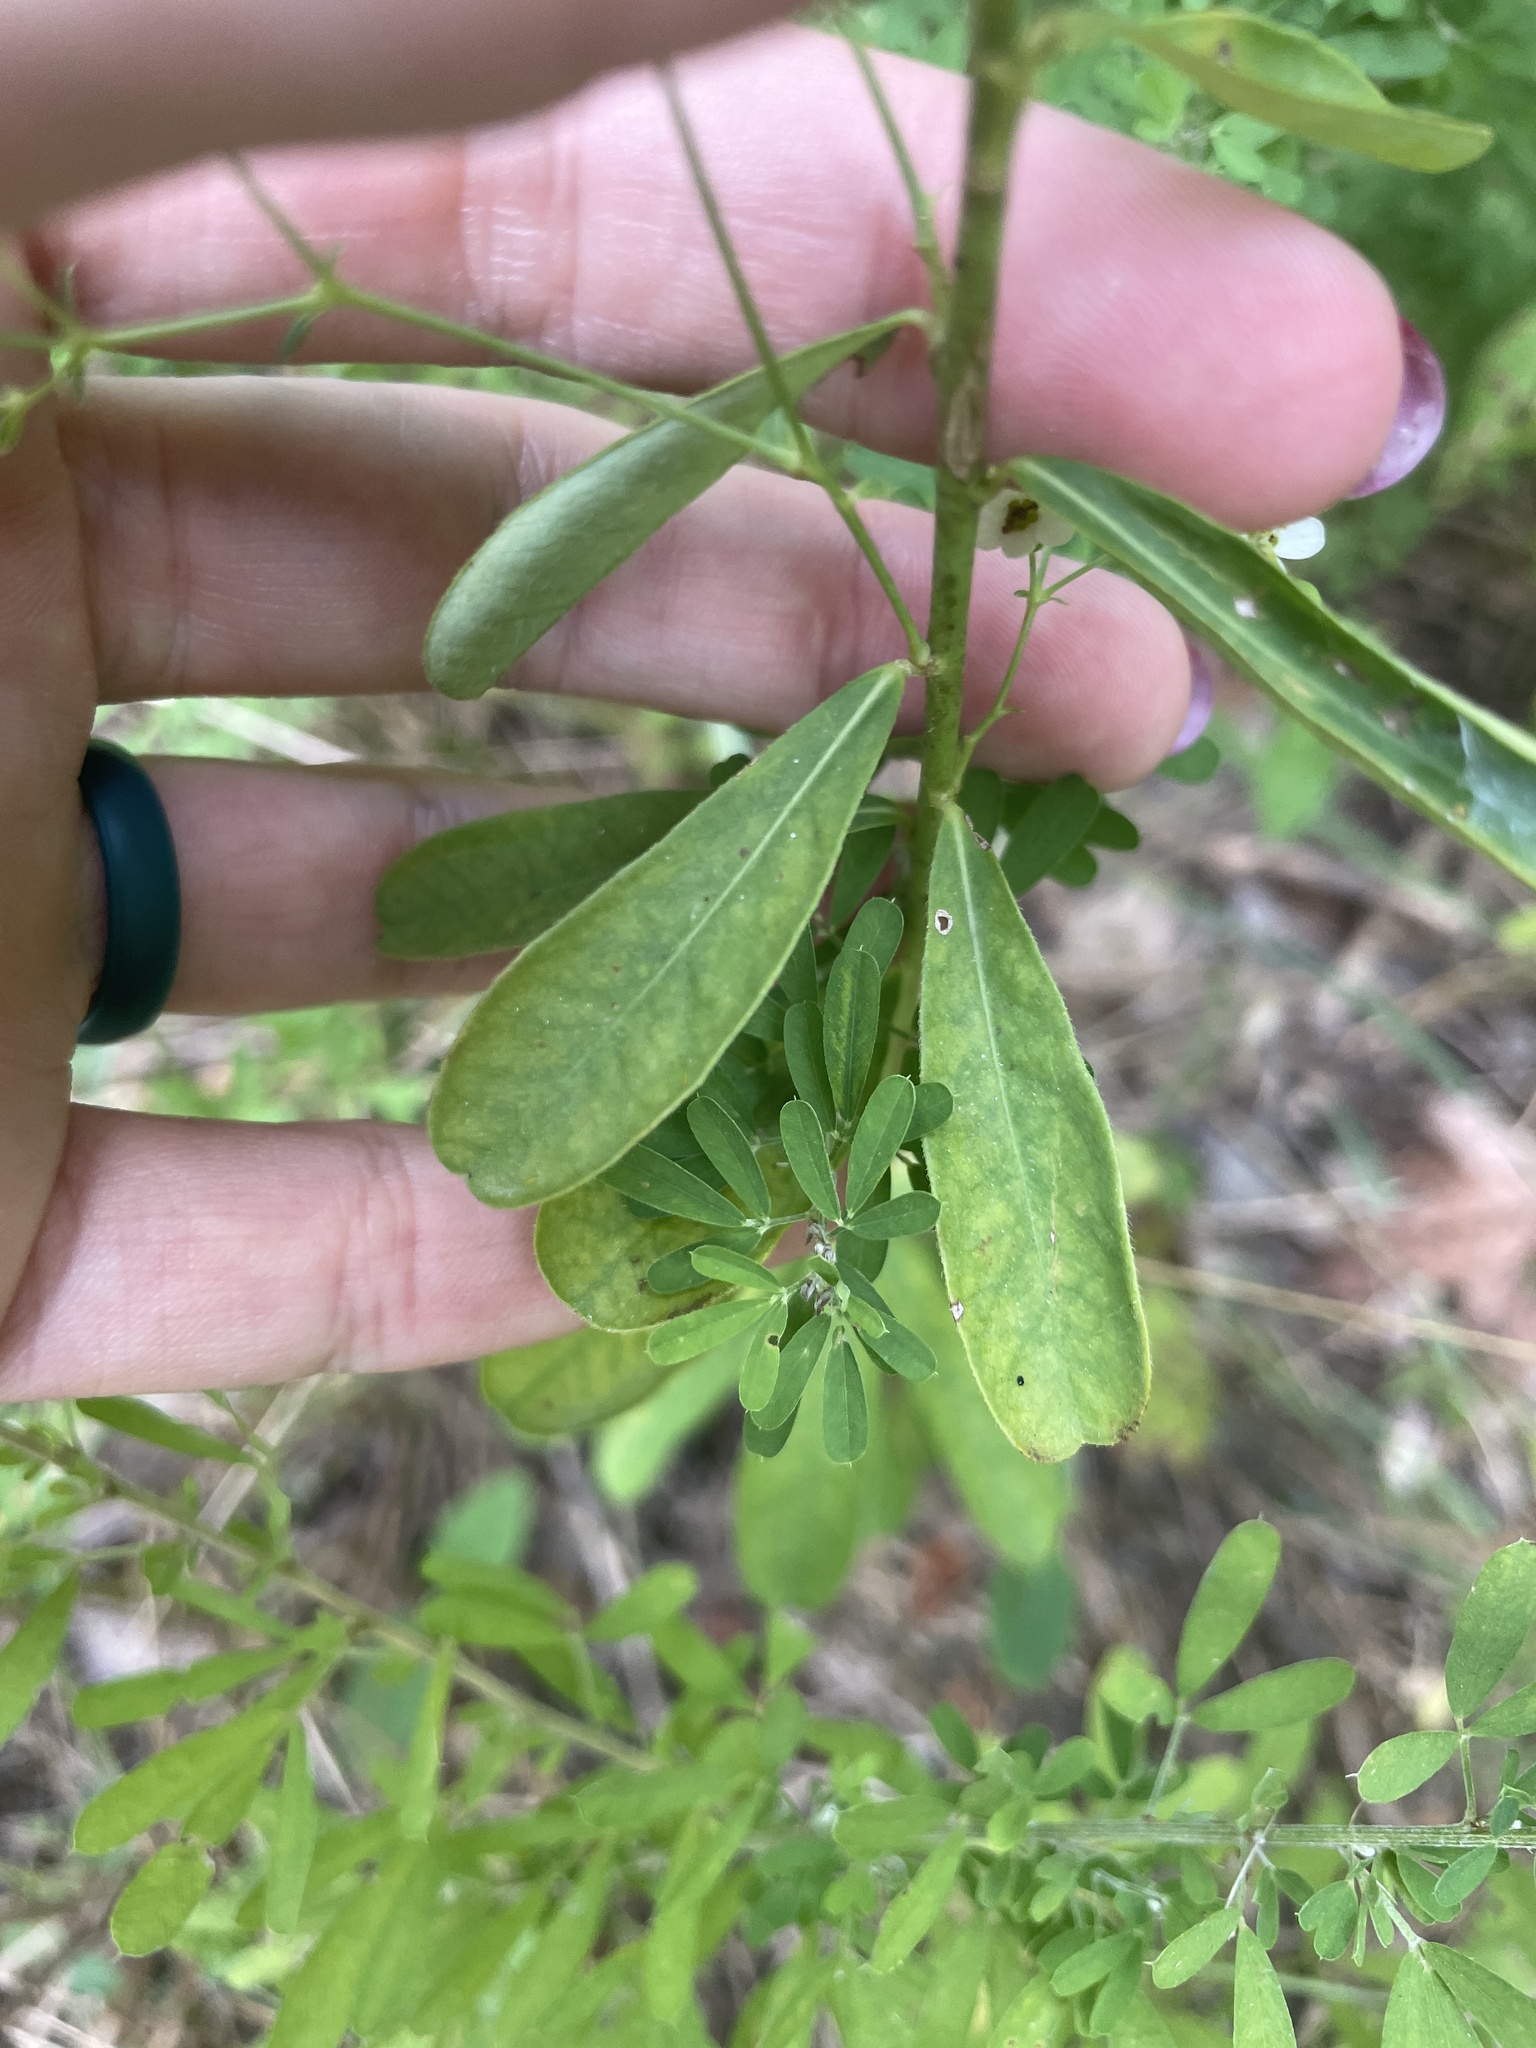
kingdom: Plantae
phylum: Tracheophyta
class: Magnoliopsida
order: Malpighiales
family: Euphorbiaceae
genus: Euphorbia
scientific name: Euphorbia corollata
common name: Flowering spurge
